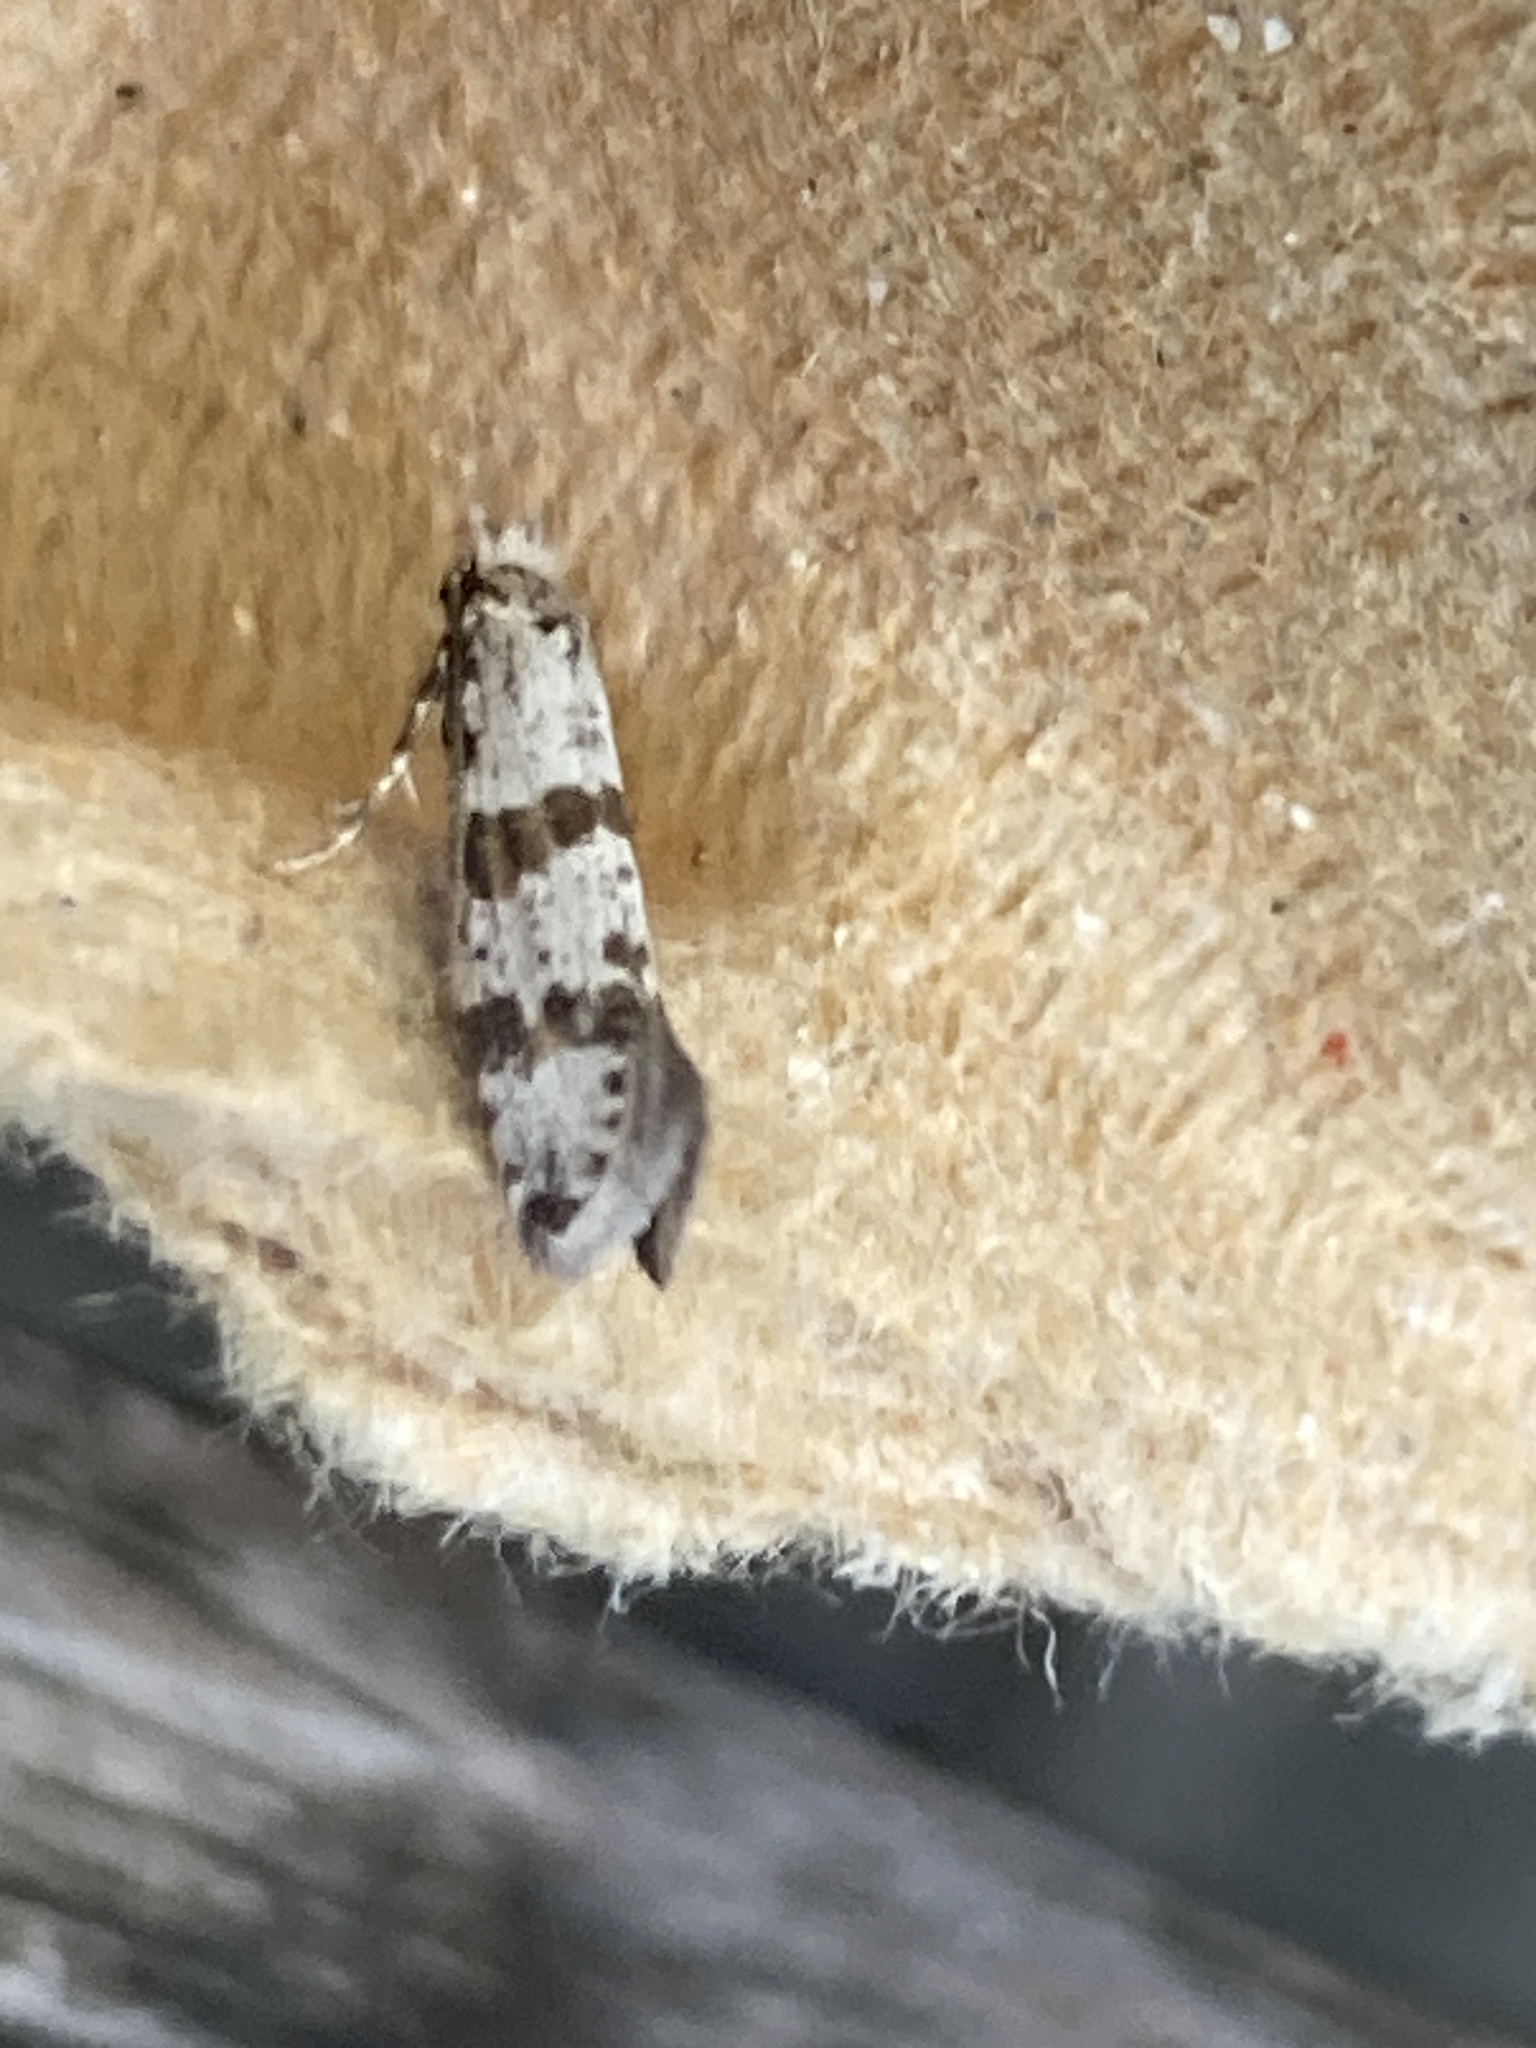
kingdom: Animalia
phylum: Arthropoda
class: Insecta
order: Lepidoptera
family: Yponomeutidae
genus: Scythropia
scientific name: Scythropia crataegella
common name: Hawthorn moth
